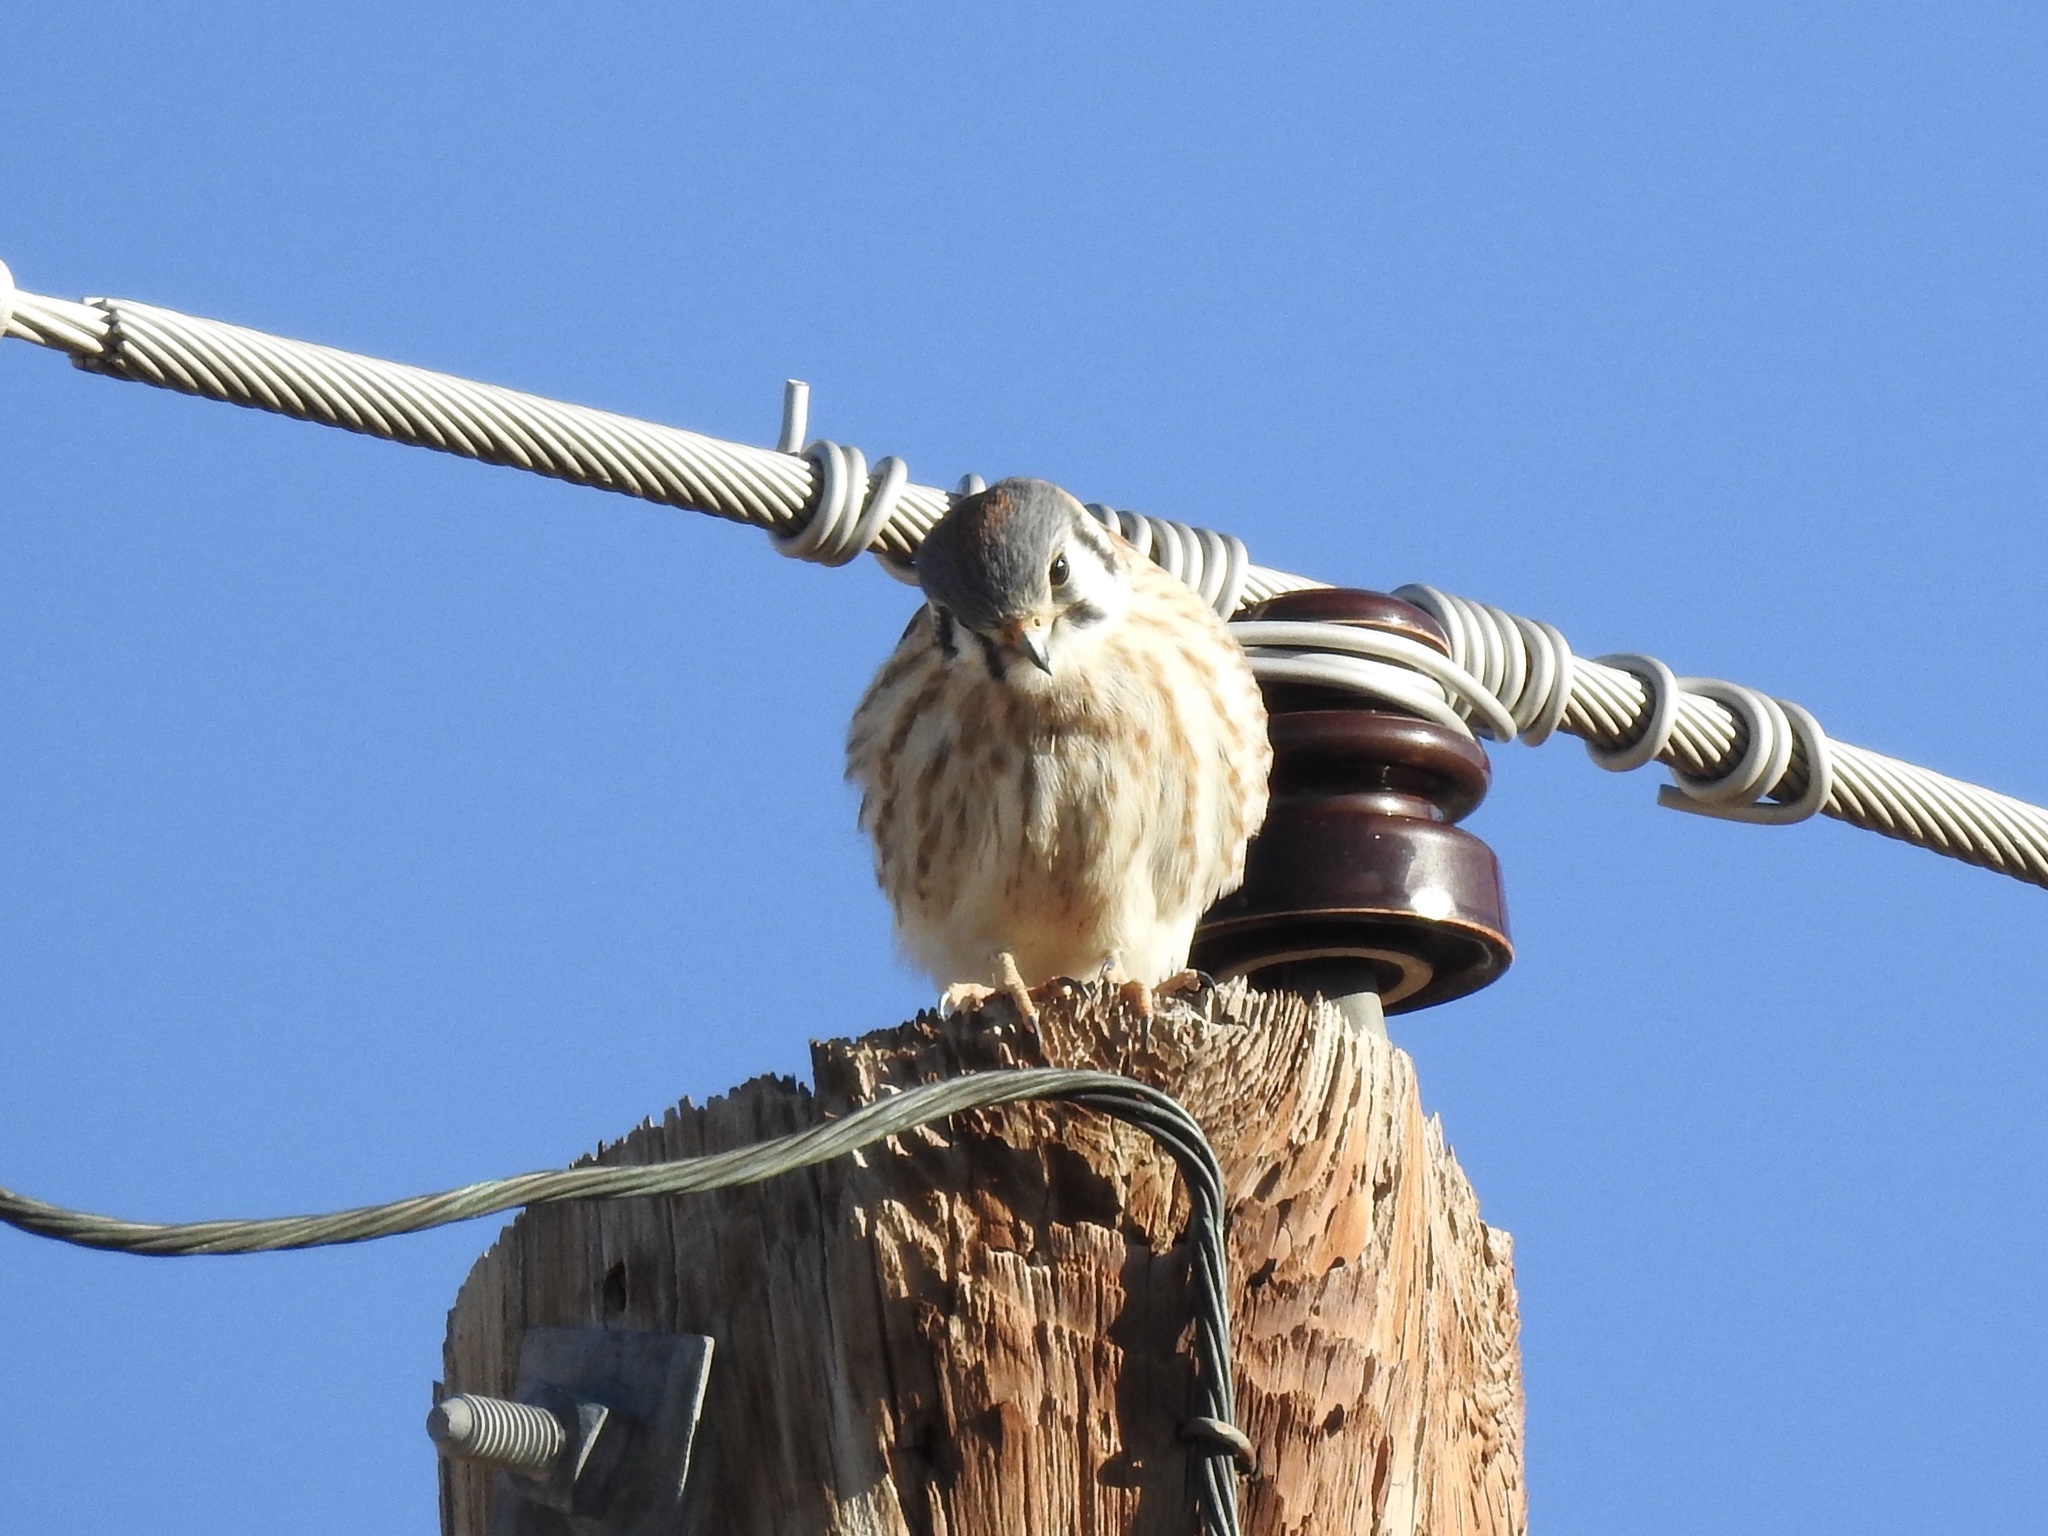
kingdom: Animalia
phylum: Chordata
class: Aves
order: Falconiformes
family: Falconidae
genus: Falco
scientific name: Falco sparverius
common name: American kestrel
